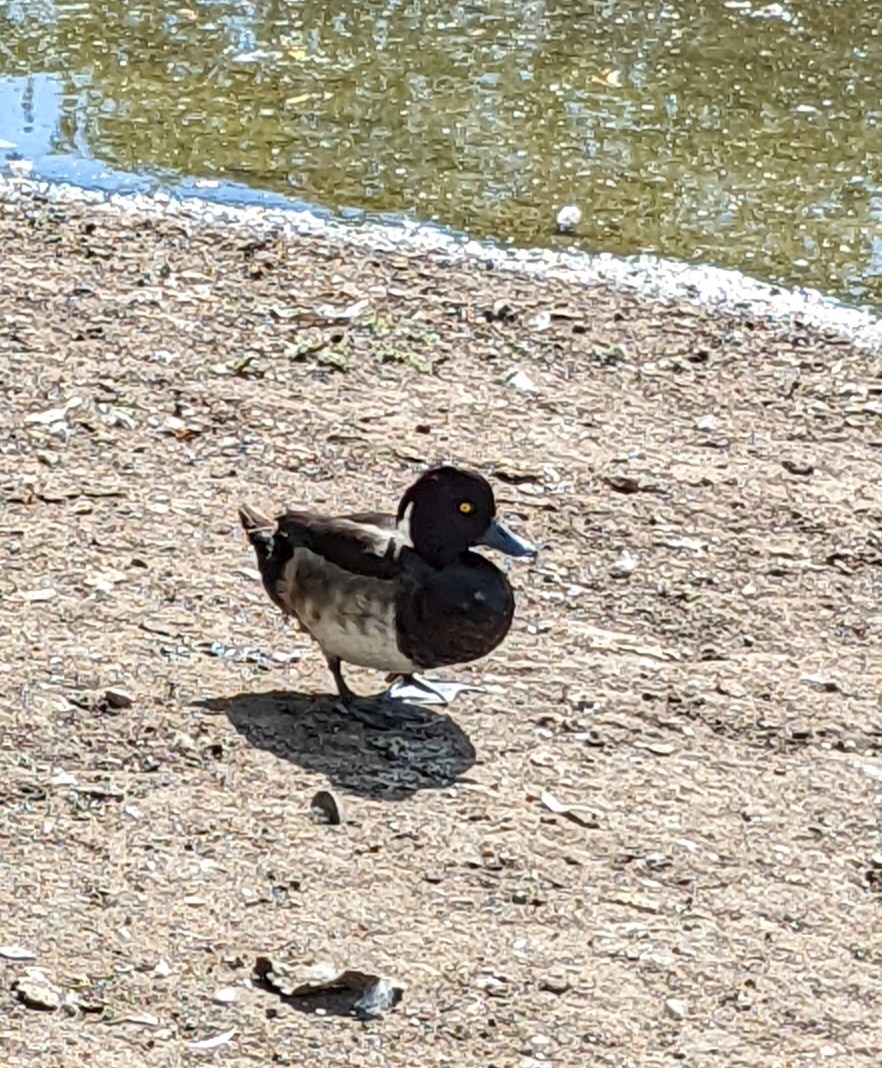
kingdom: Animalia
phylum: Chordata
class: Aves
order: Anseriformes
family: Anatidae
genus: Aythya
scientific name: Aythya fuligula
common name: Tufted duck
